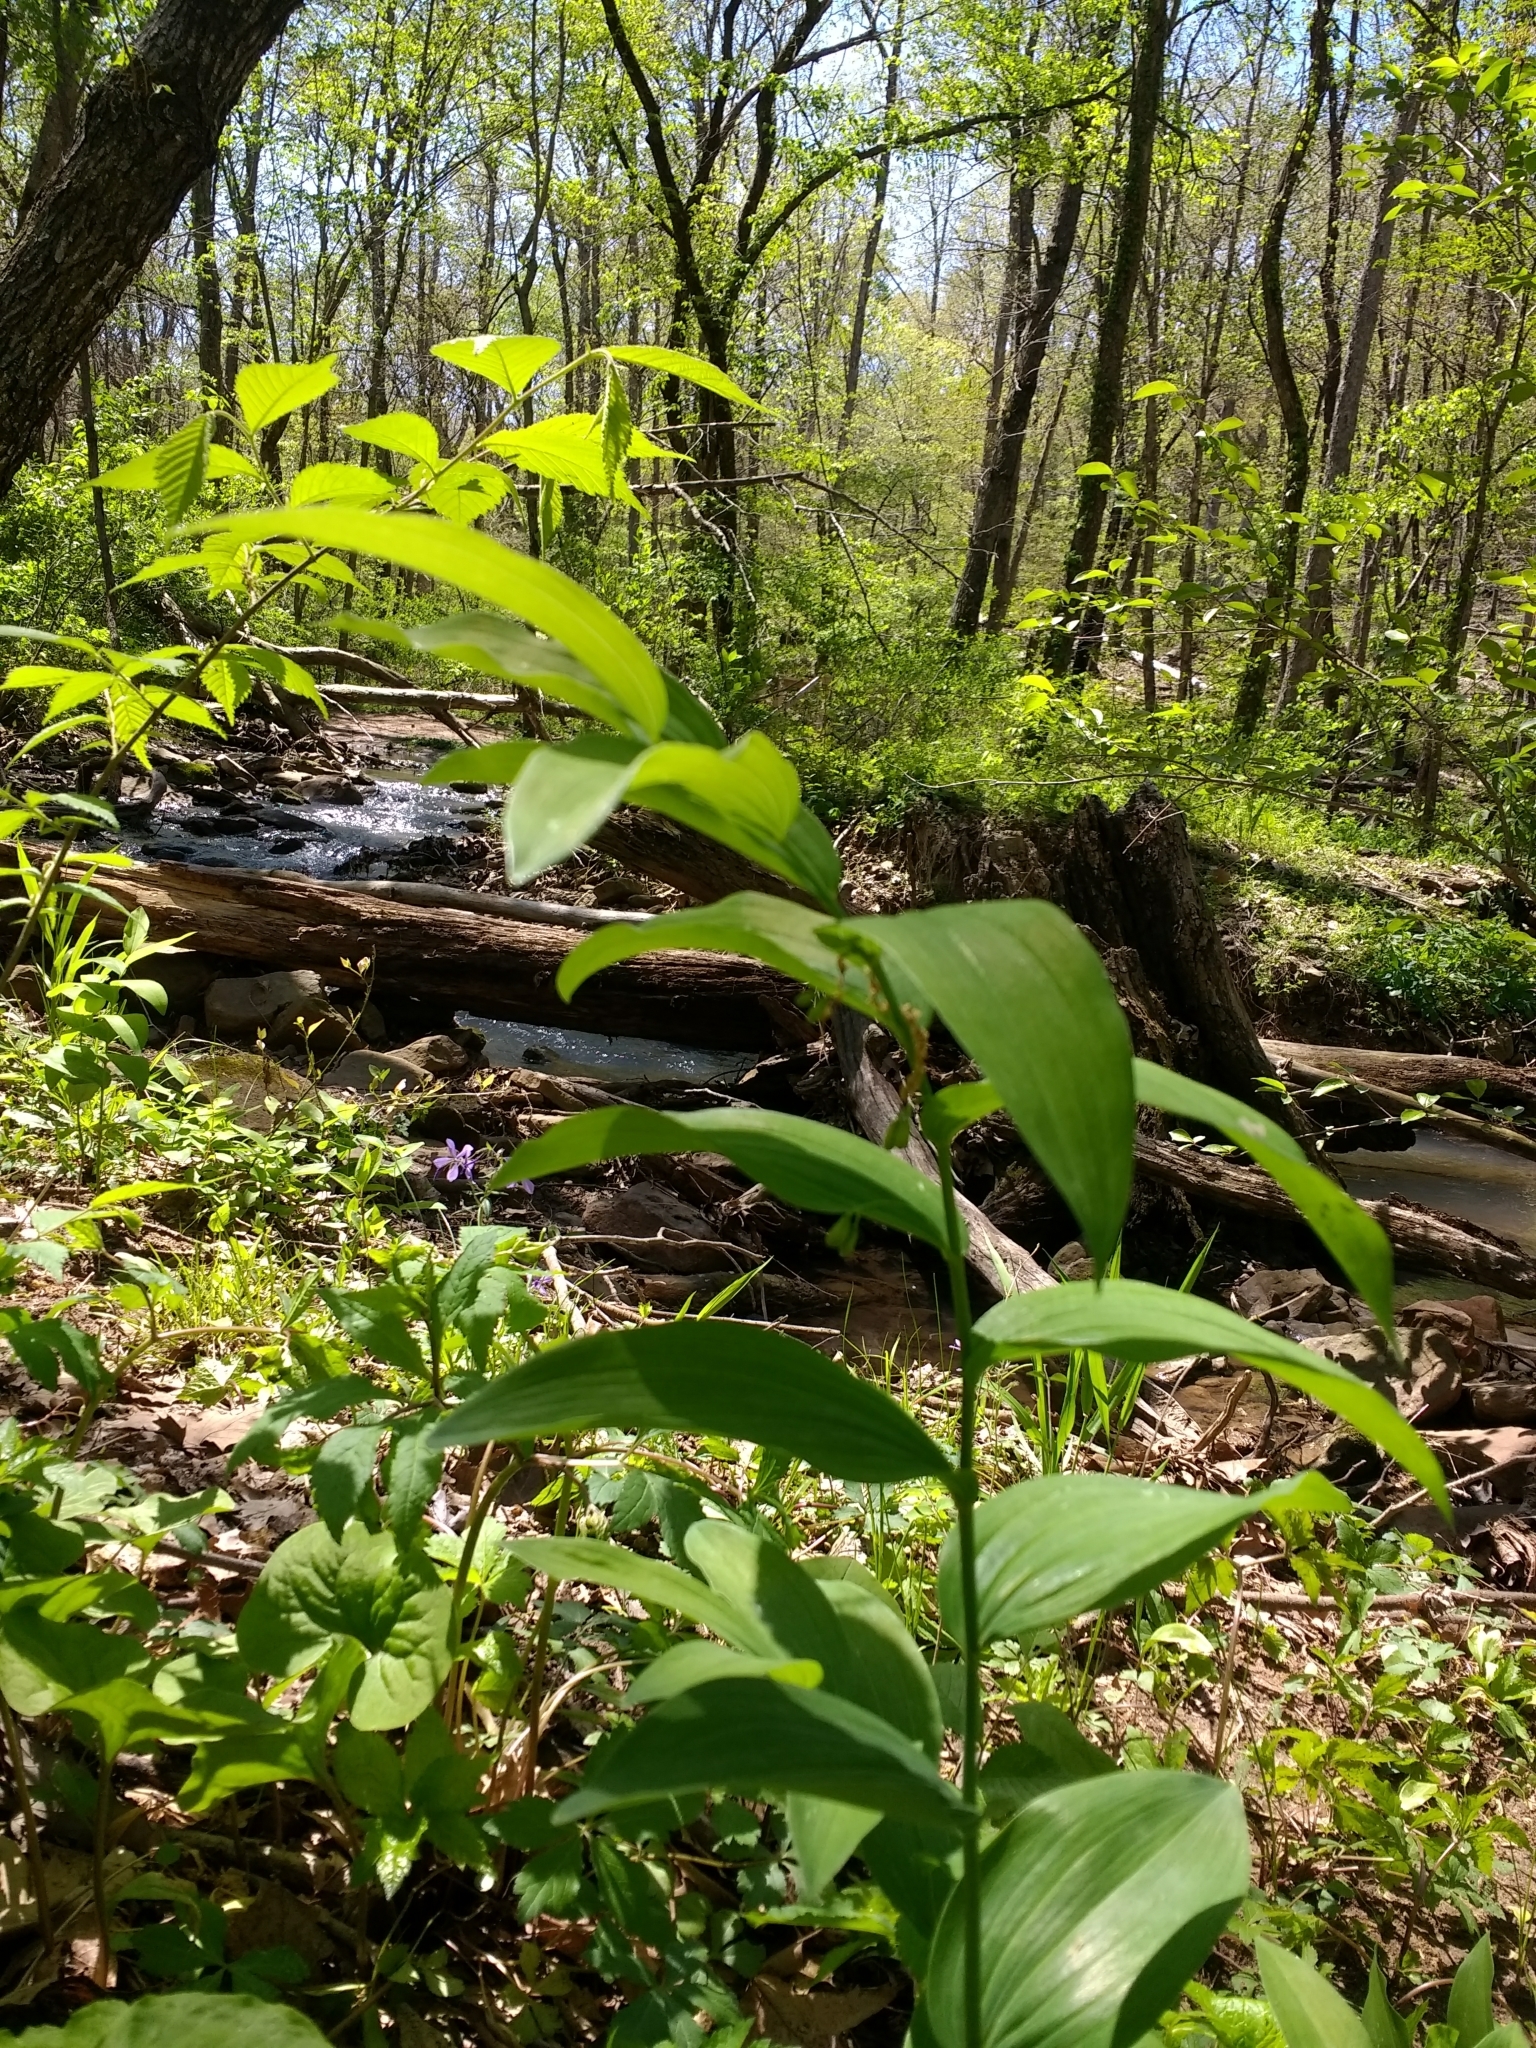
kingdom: Plantae
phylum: Tracheophyta
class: Liliopsida
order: Asparagales
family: Asparagaceae
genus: Polygonatum
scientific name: Polygonatum biflorum
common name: American solomon's-seal
